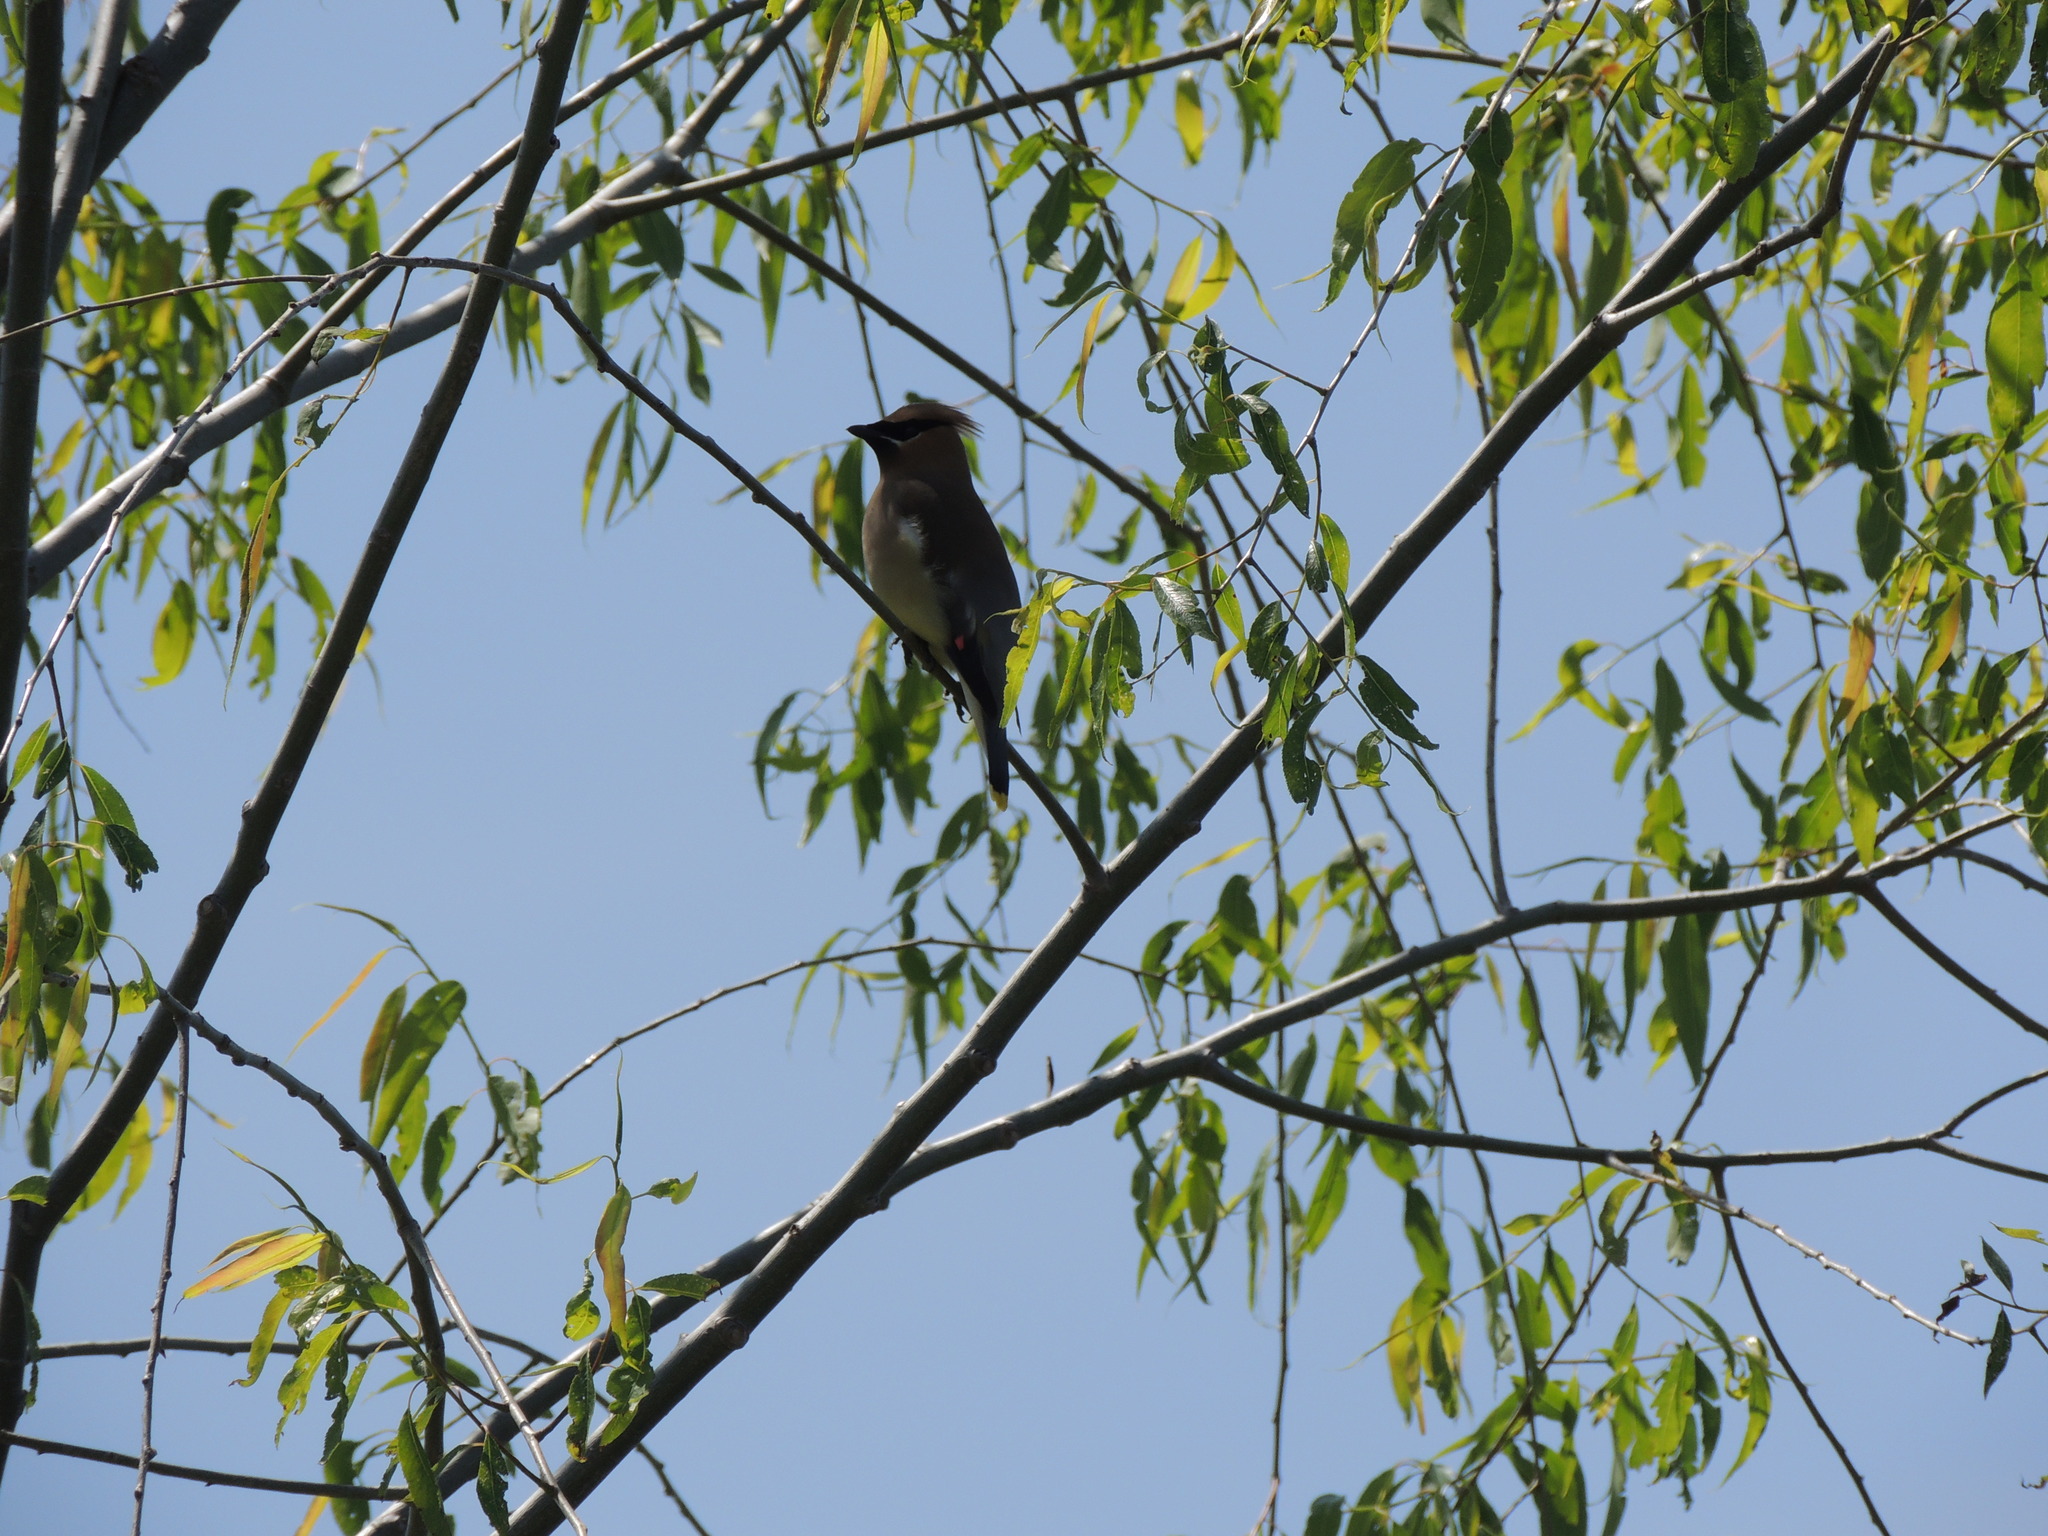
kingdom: Animalia
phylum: Chordata
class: Aves
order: Passeriformes
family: Bombycillidae
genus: Bombycilla
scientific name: Bombycilla cedrorum
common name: Cedar waxwing
